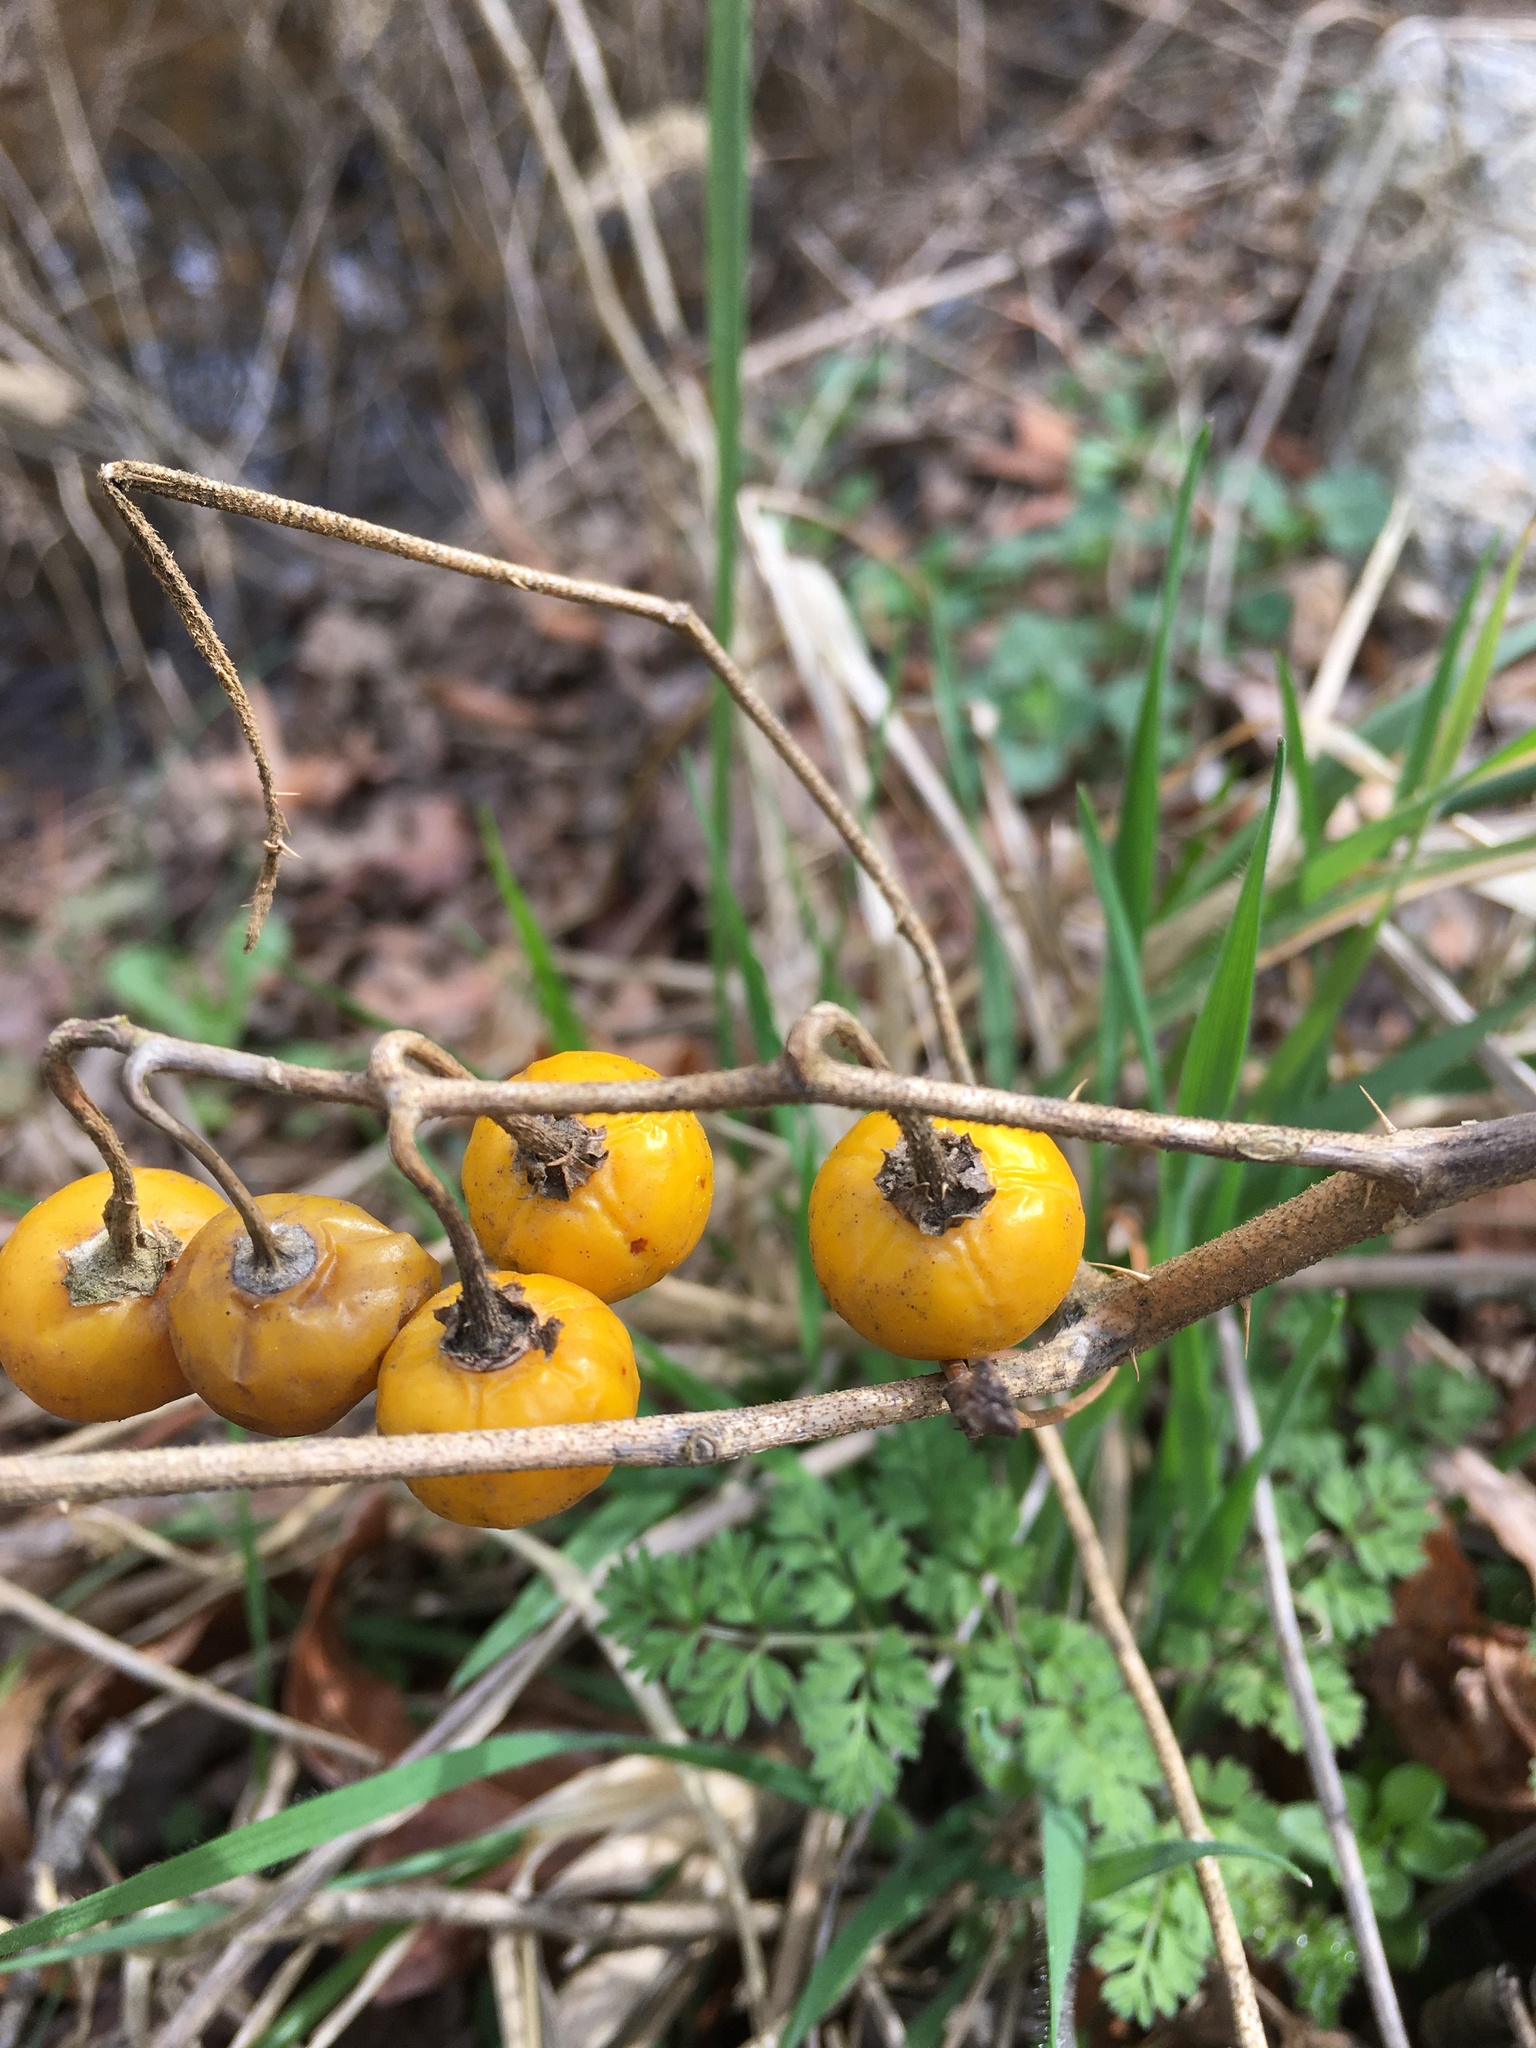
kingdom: Plantae
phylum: Tracheophyta
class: Magnoliopsida
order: Solanales
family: Solanaceae
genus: Solanum
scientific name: Solanum carolinense
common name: Horse-nettle
